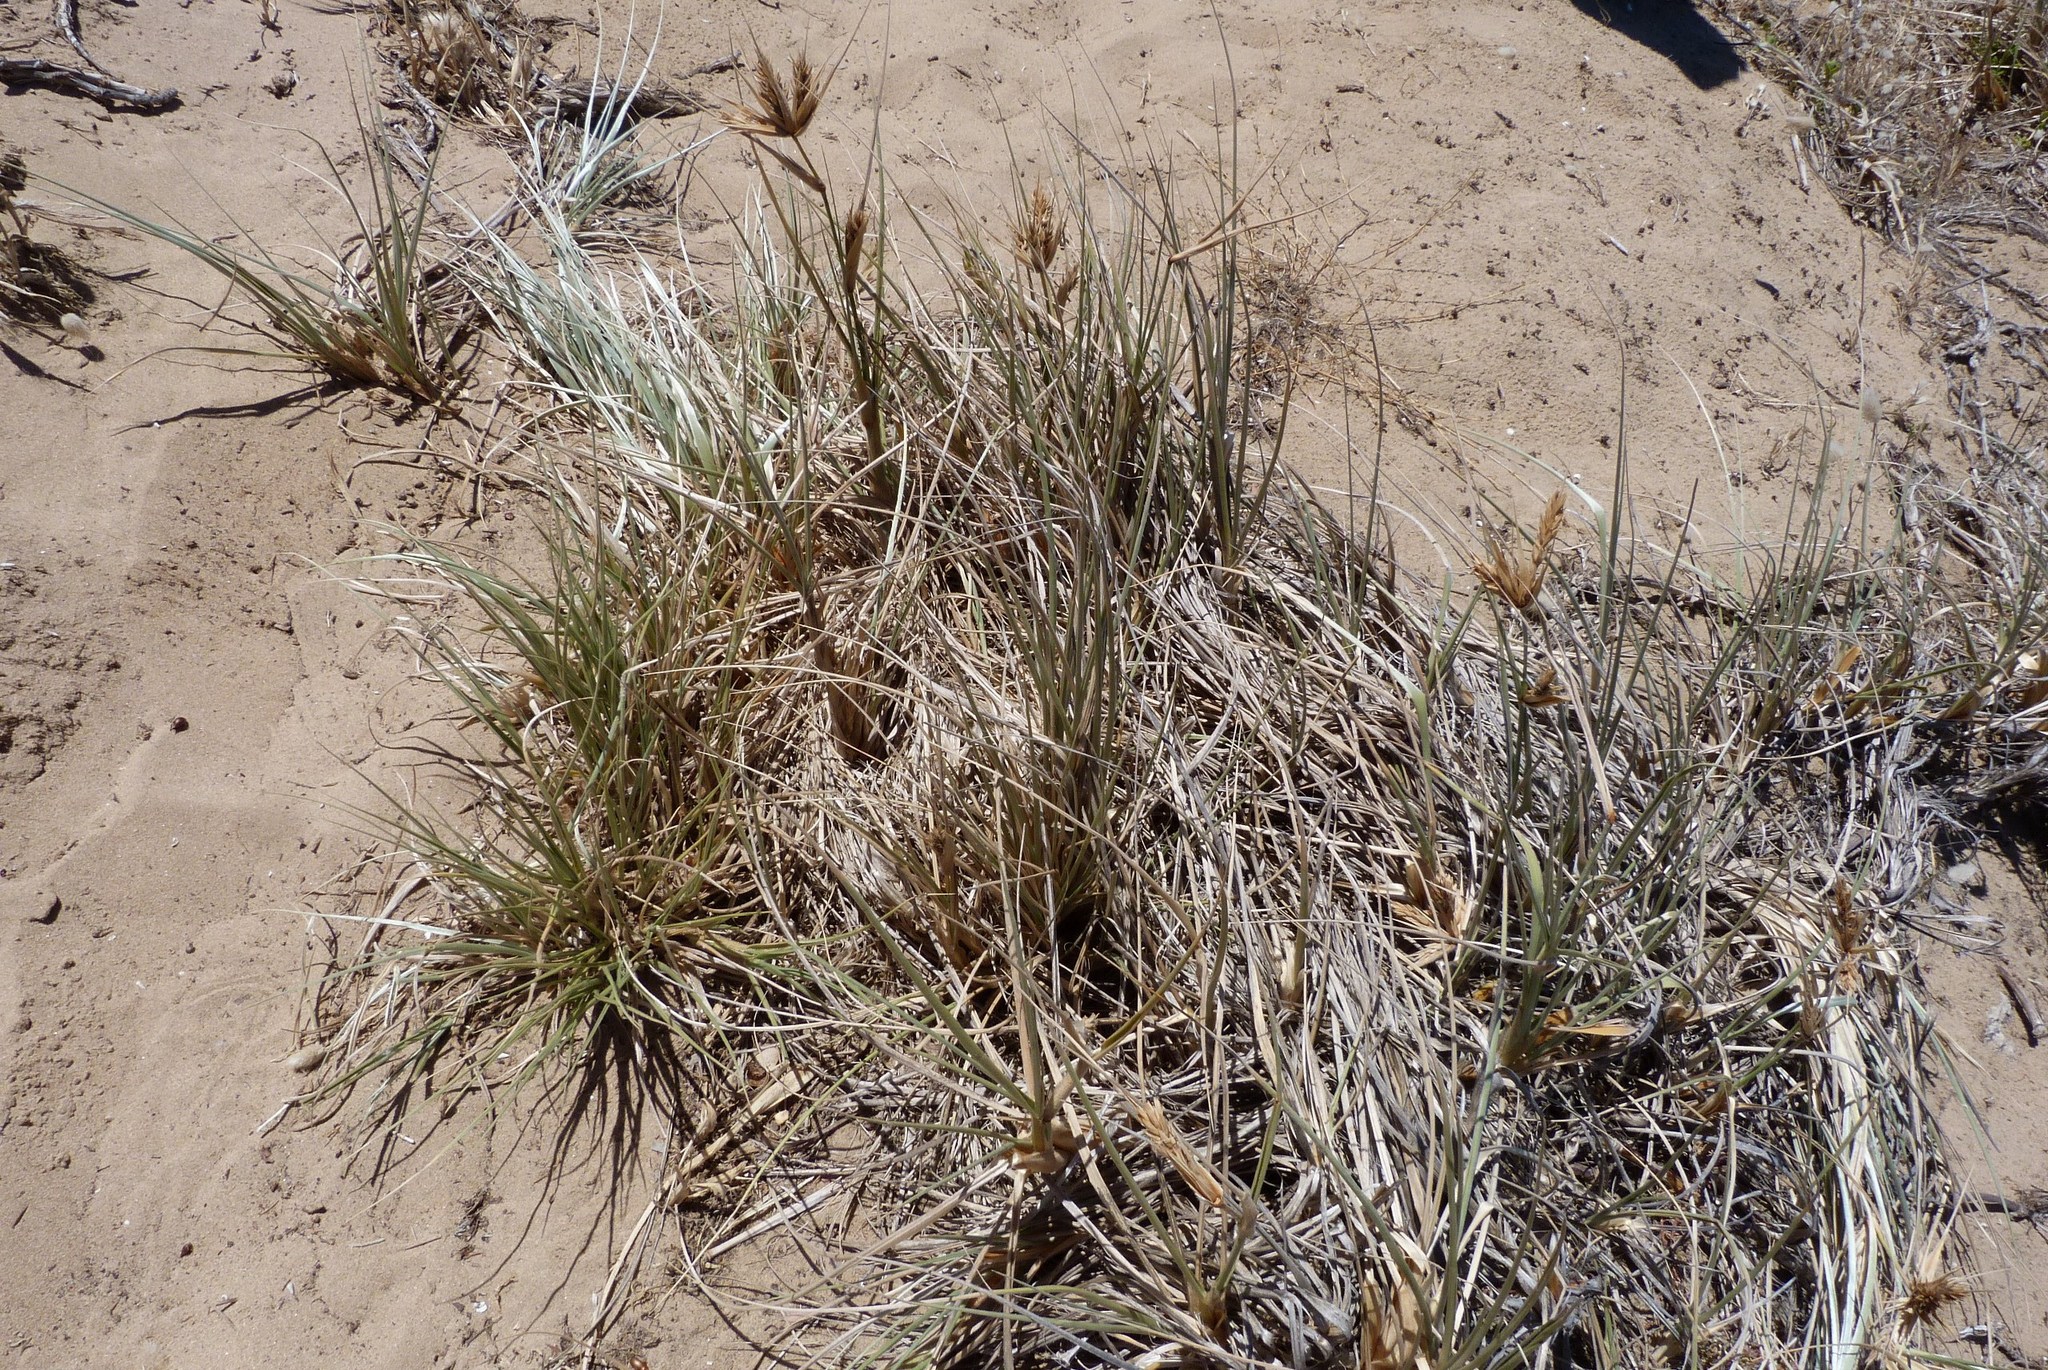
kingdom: Plantae
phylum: Tracheophyta
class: Liliopsida
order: Poales
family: Poaceae
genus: Spinifex
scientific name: Spinifex sericeus
